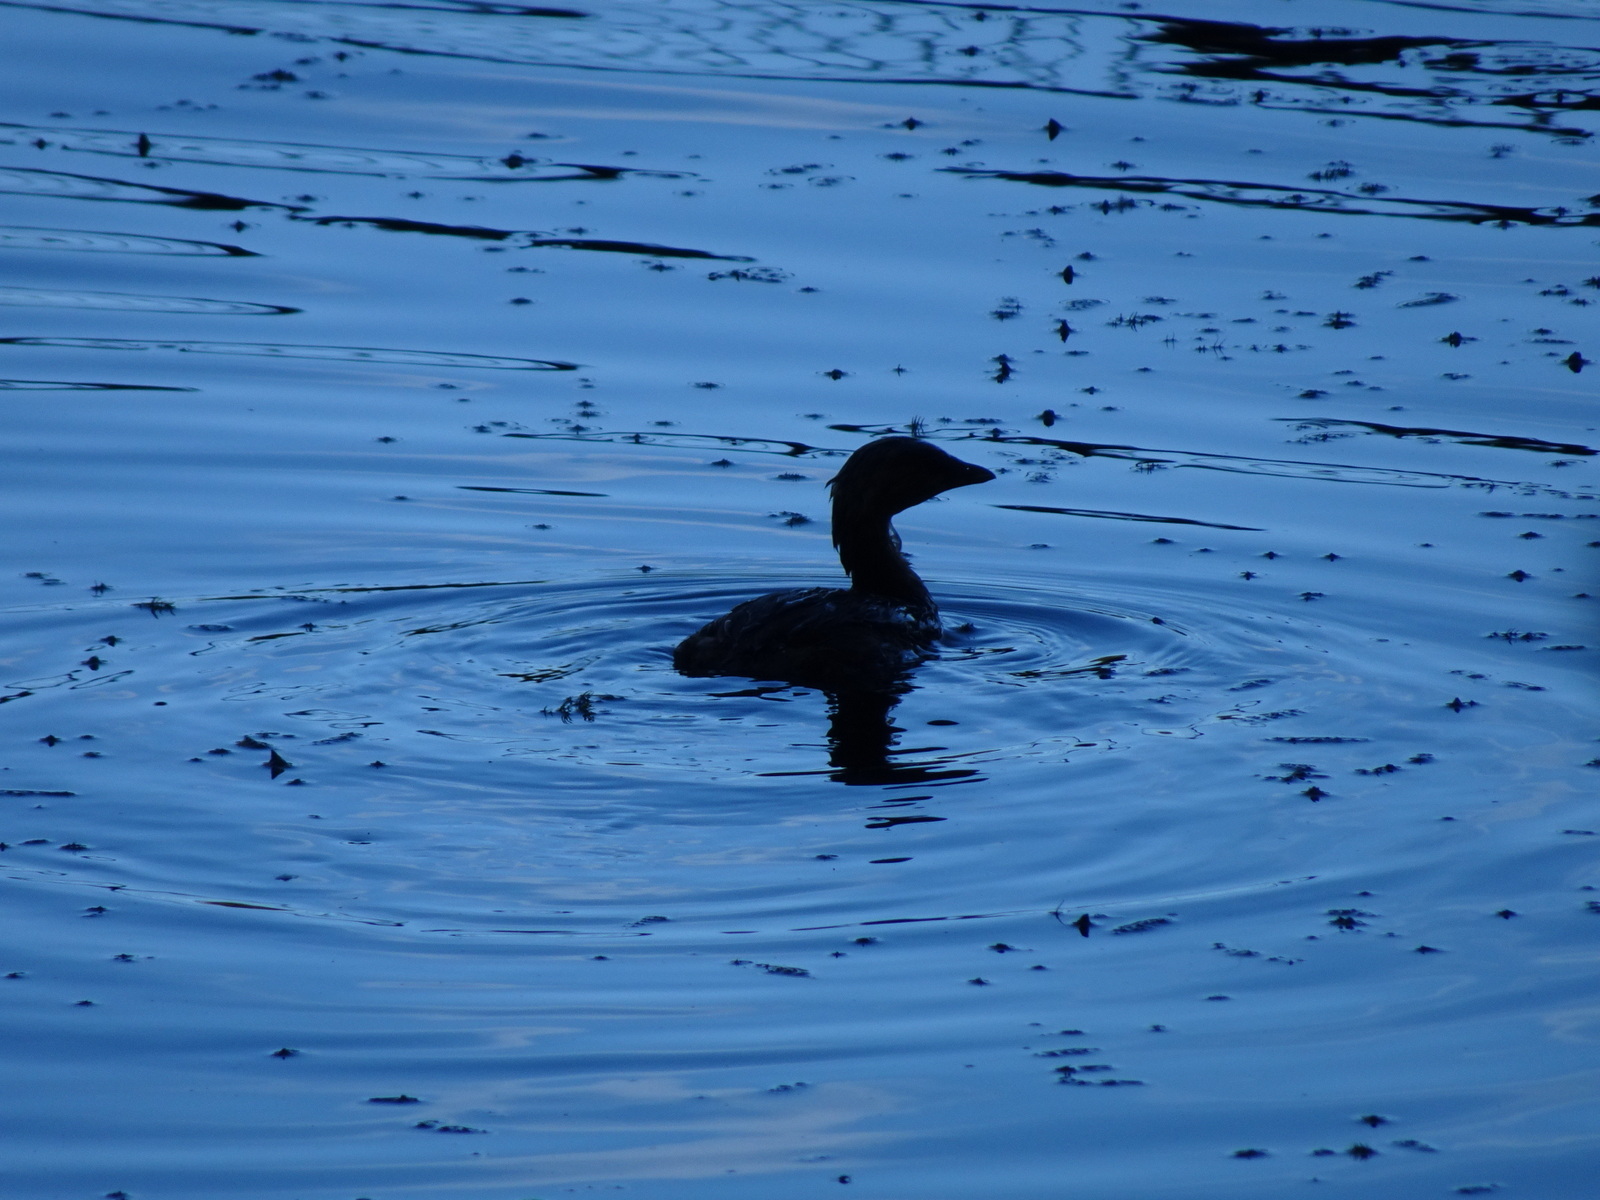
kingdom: Animalia
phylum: Chordata
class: Aves
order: Podicipediformes
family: Podicipedidae
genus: Podilymbus
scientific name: Podilymbus podiceps
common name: Pied-billed grebe
